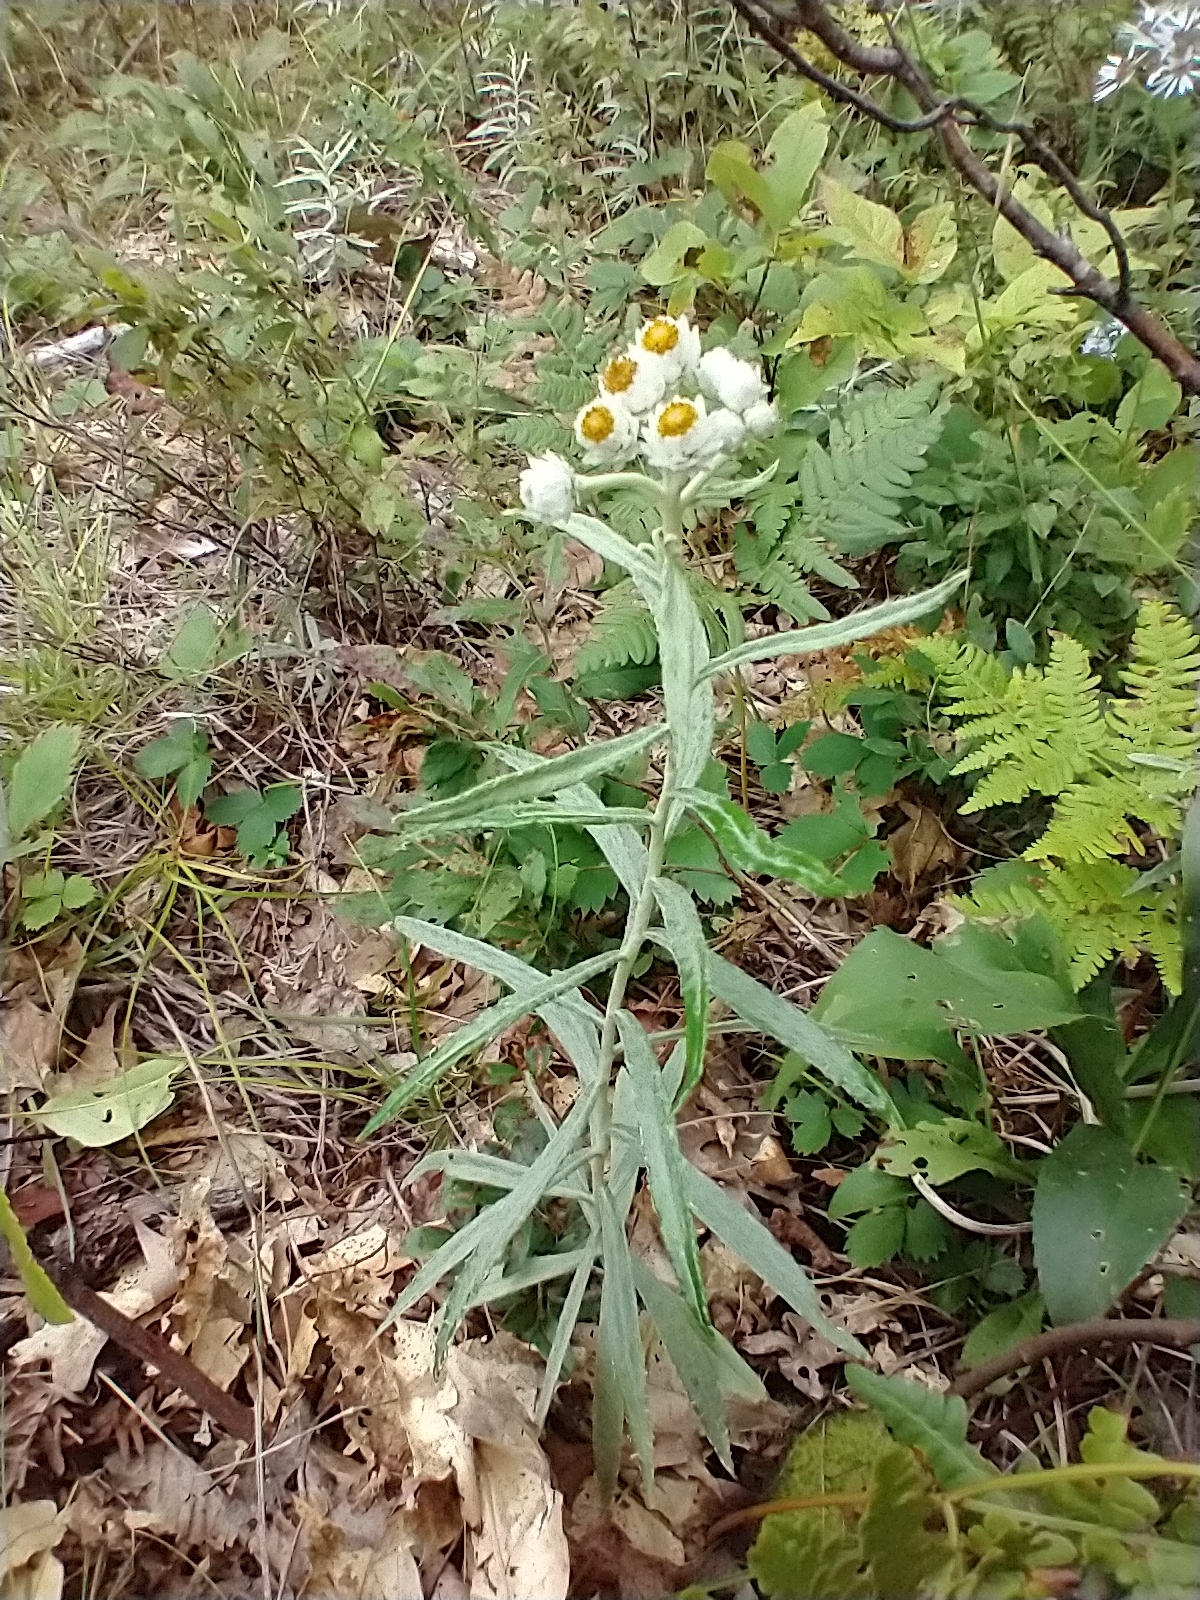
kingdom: Plantae
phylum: Tracheophyta
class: Magnoliopsida
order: Asterales
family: Asteraceae
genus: Anaphalis
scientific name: Anaphalis margaritacea
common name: Pearly everlasting
